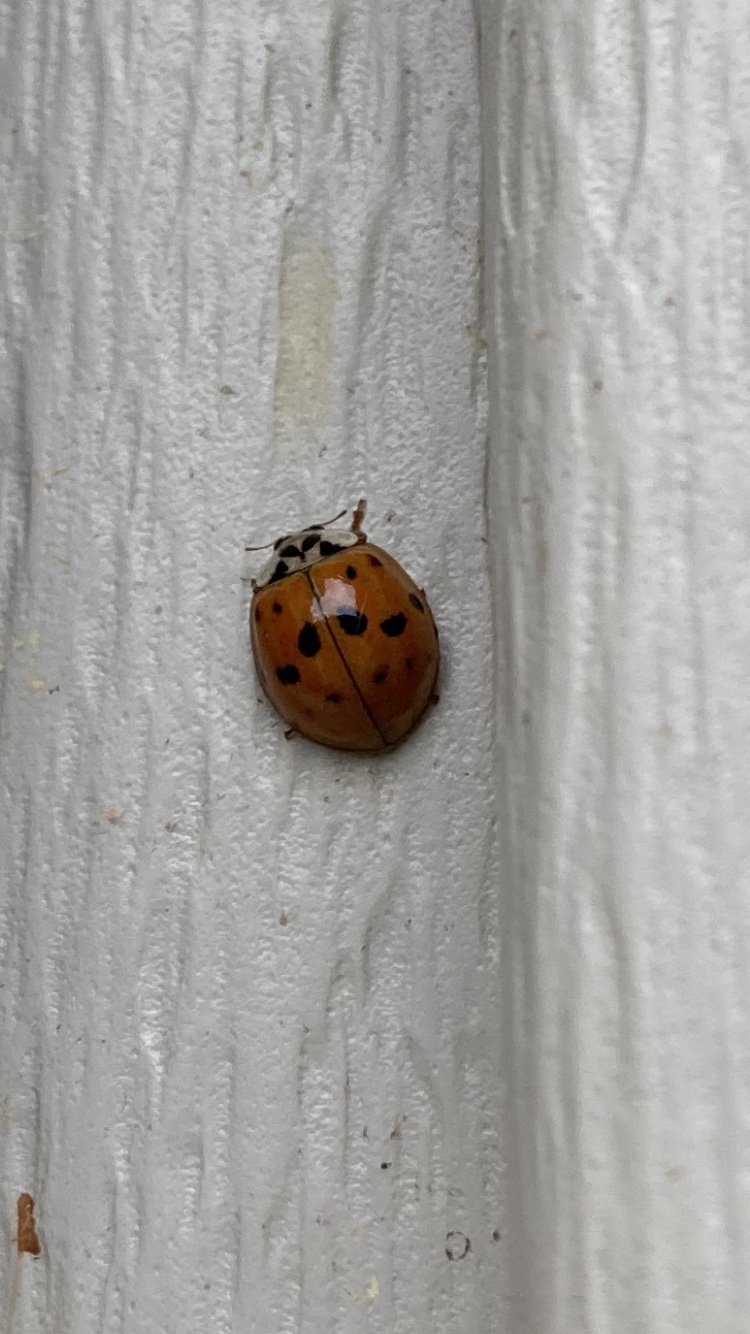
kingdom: Animalia
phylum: Arthropoda
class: Insecta
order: Coleoptera
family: Coccinellidae
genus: Harmonia
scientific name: Harmonia axyridis
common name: Harlequin ladybird
